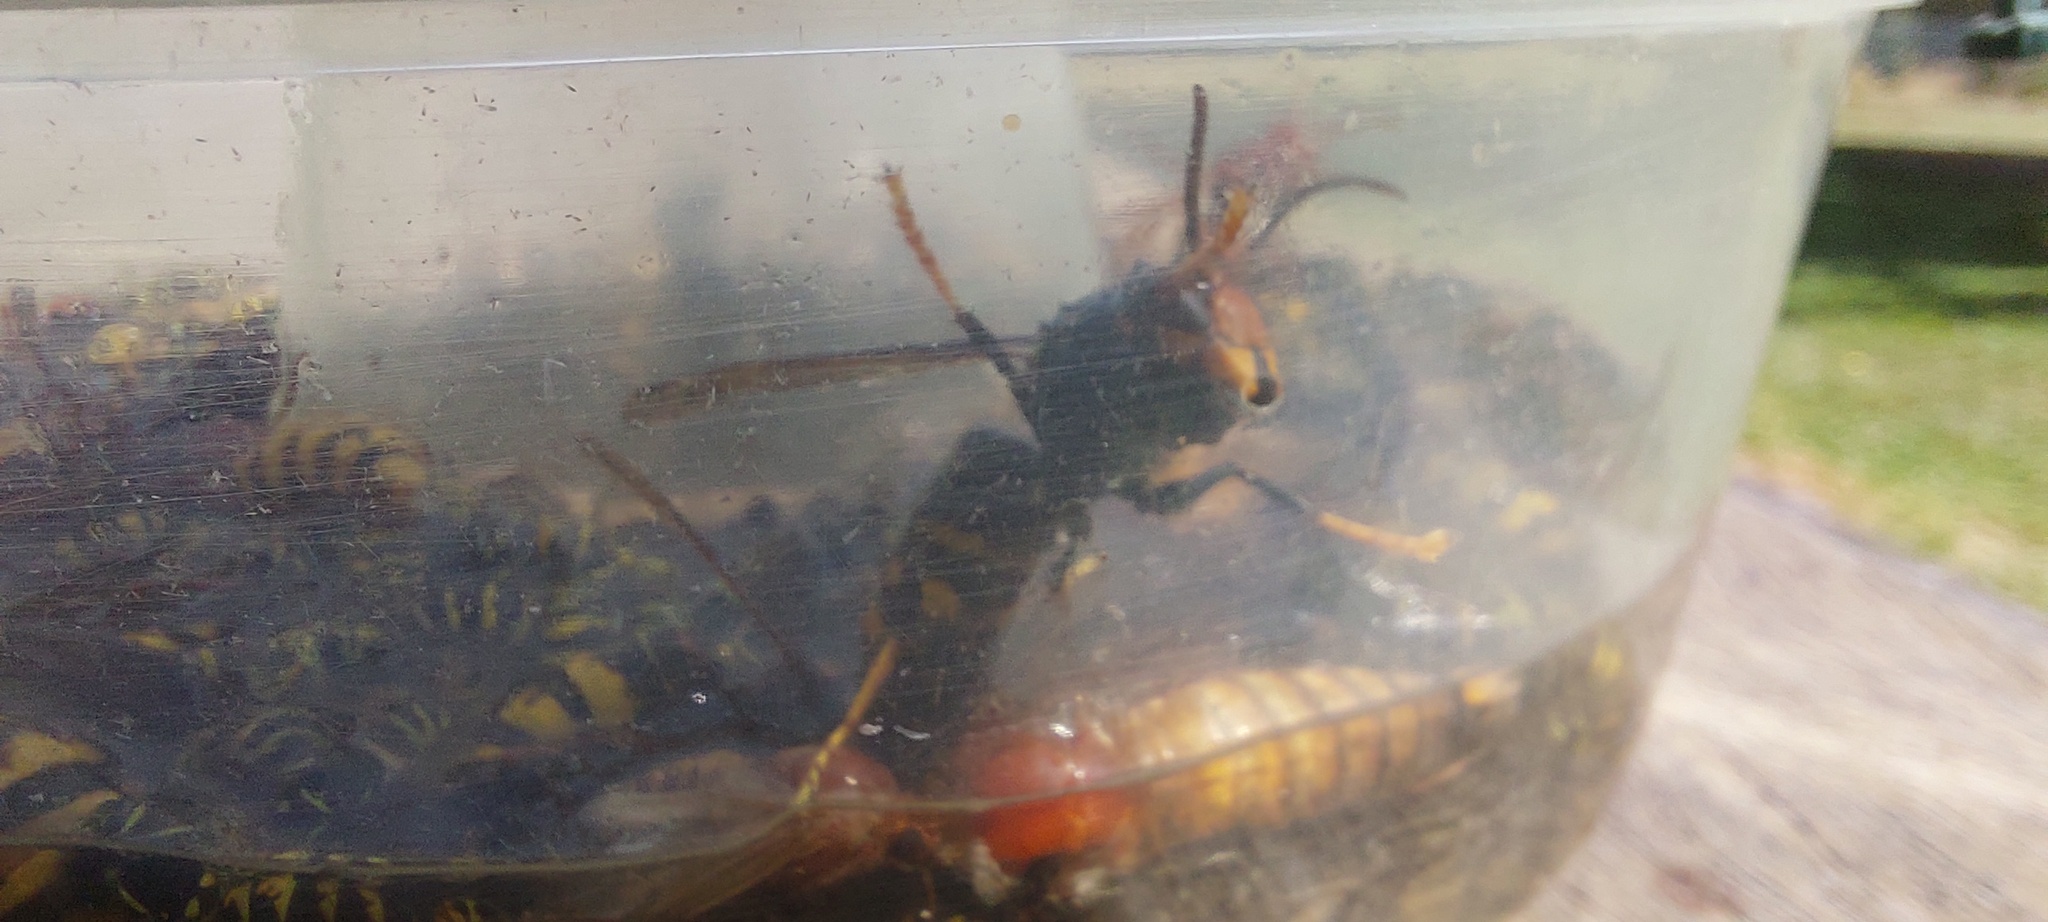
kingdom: Animalia
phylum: Arthropoda
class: Insecta
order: Hymenoptera
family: Vespidae
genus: Vespa
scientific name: Vespa velutina
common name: Asian hornet
